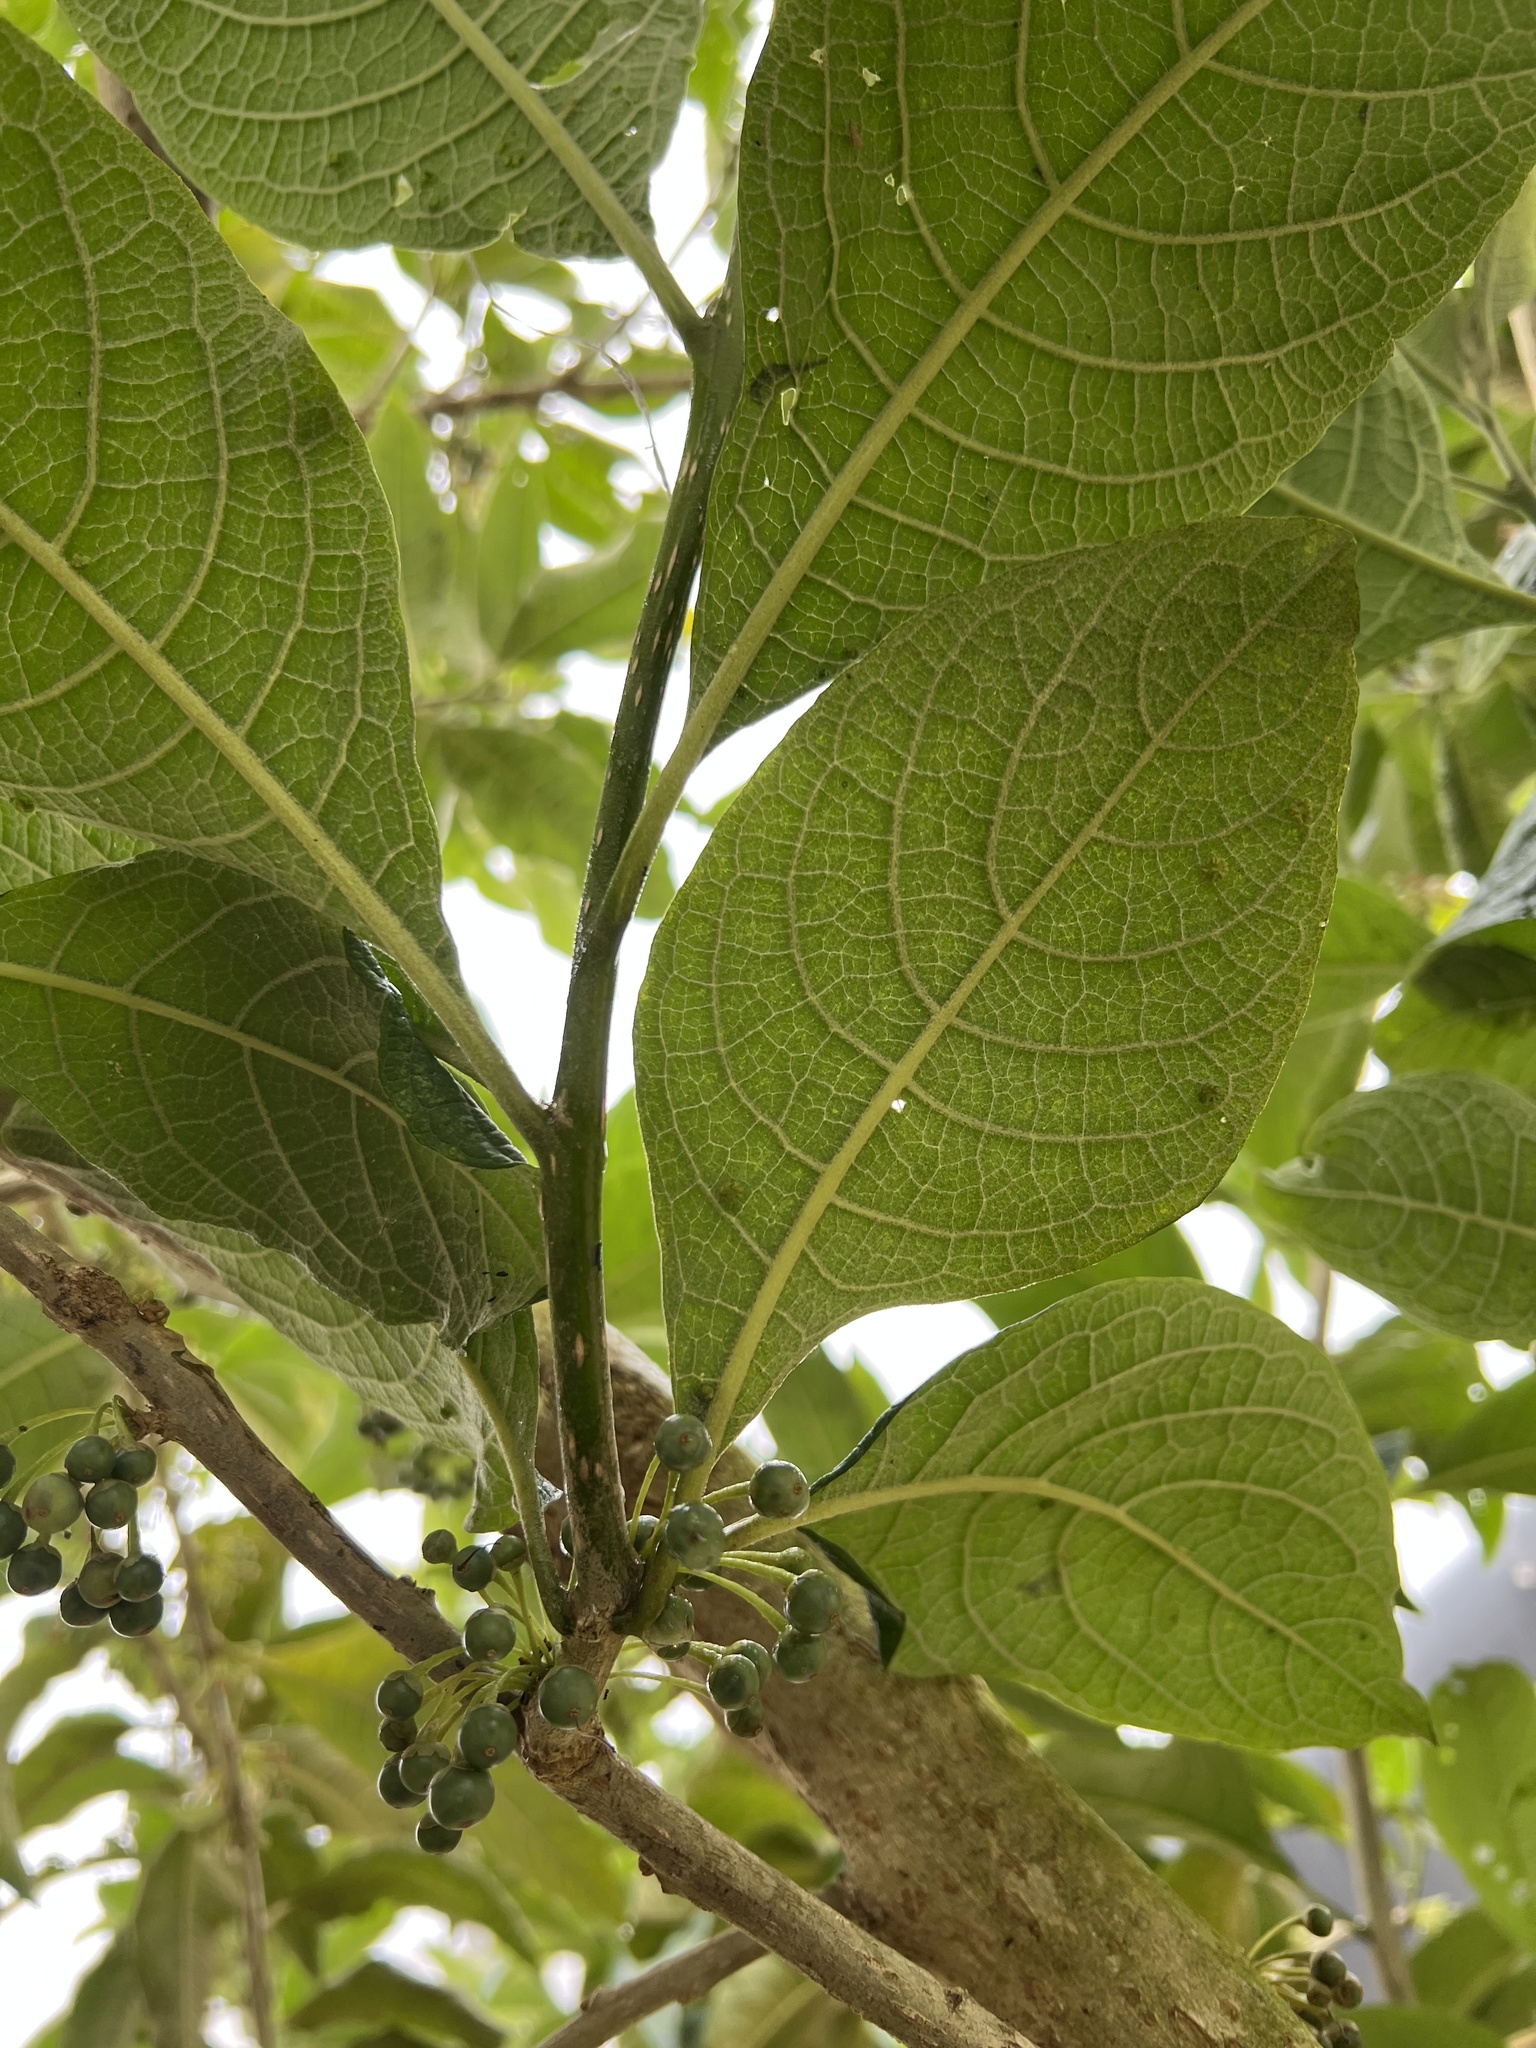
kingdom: Plantae
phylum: Tracheophyta
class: Magnoliopsida
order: Solanales
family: Solanaceae
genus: Iochroma
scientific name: Iochroma arborescens
